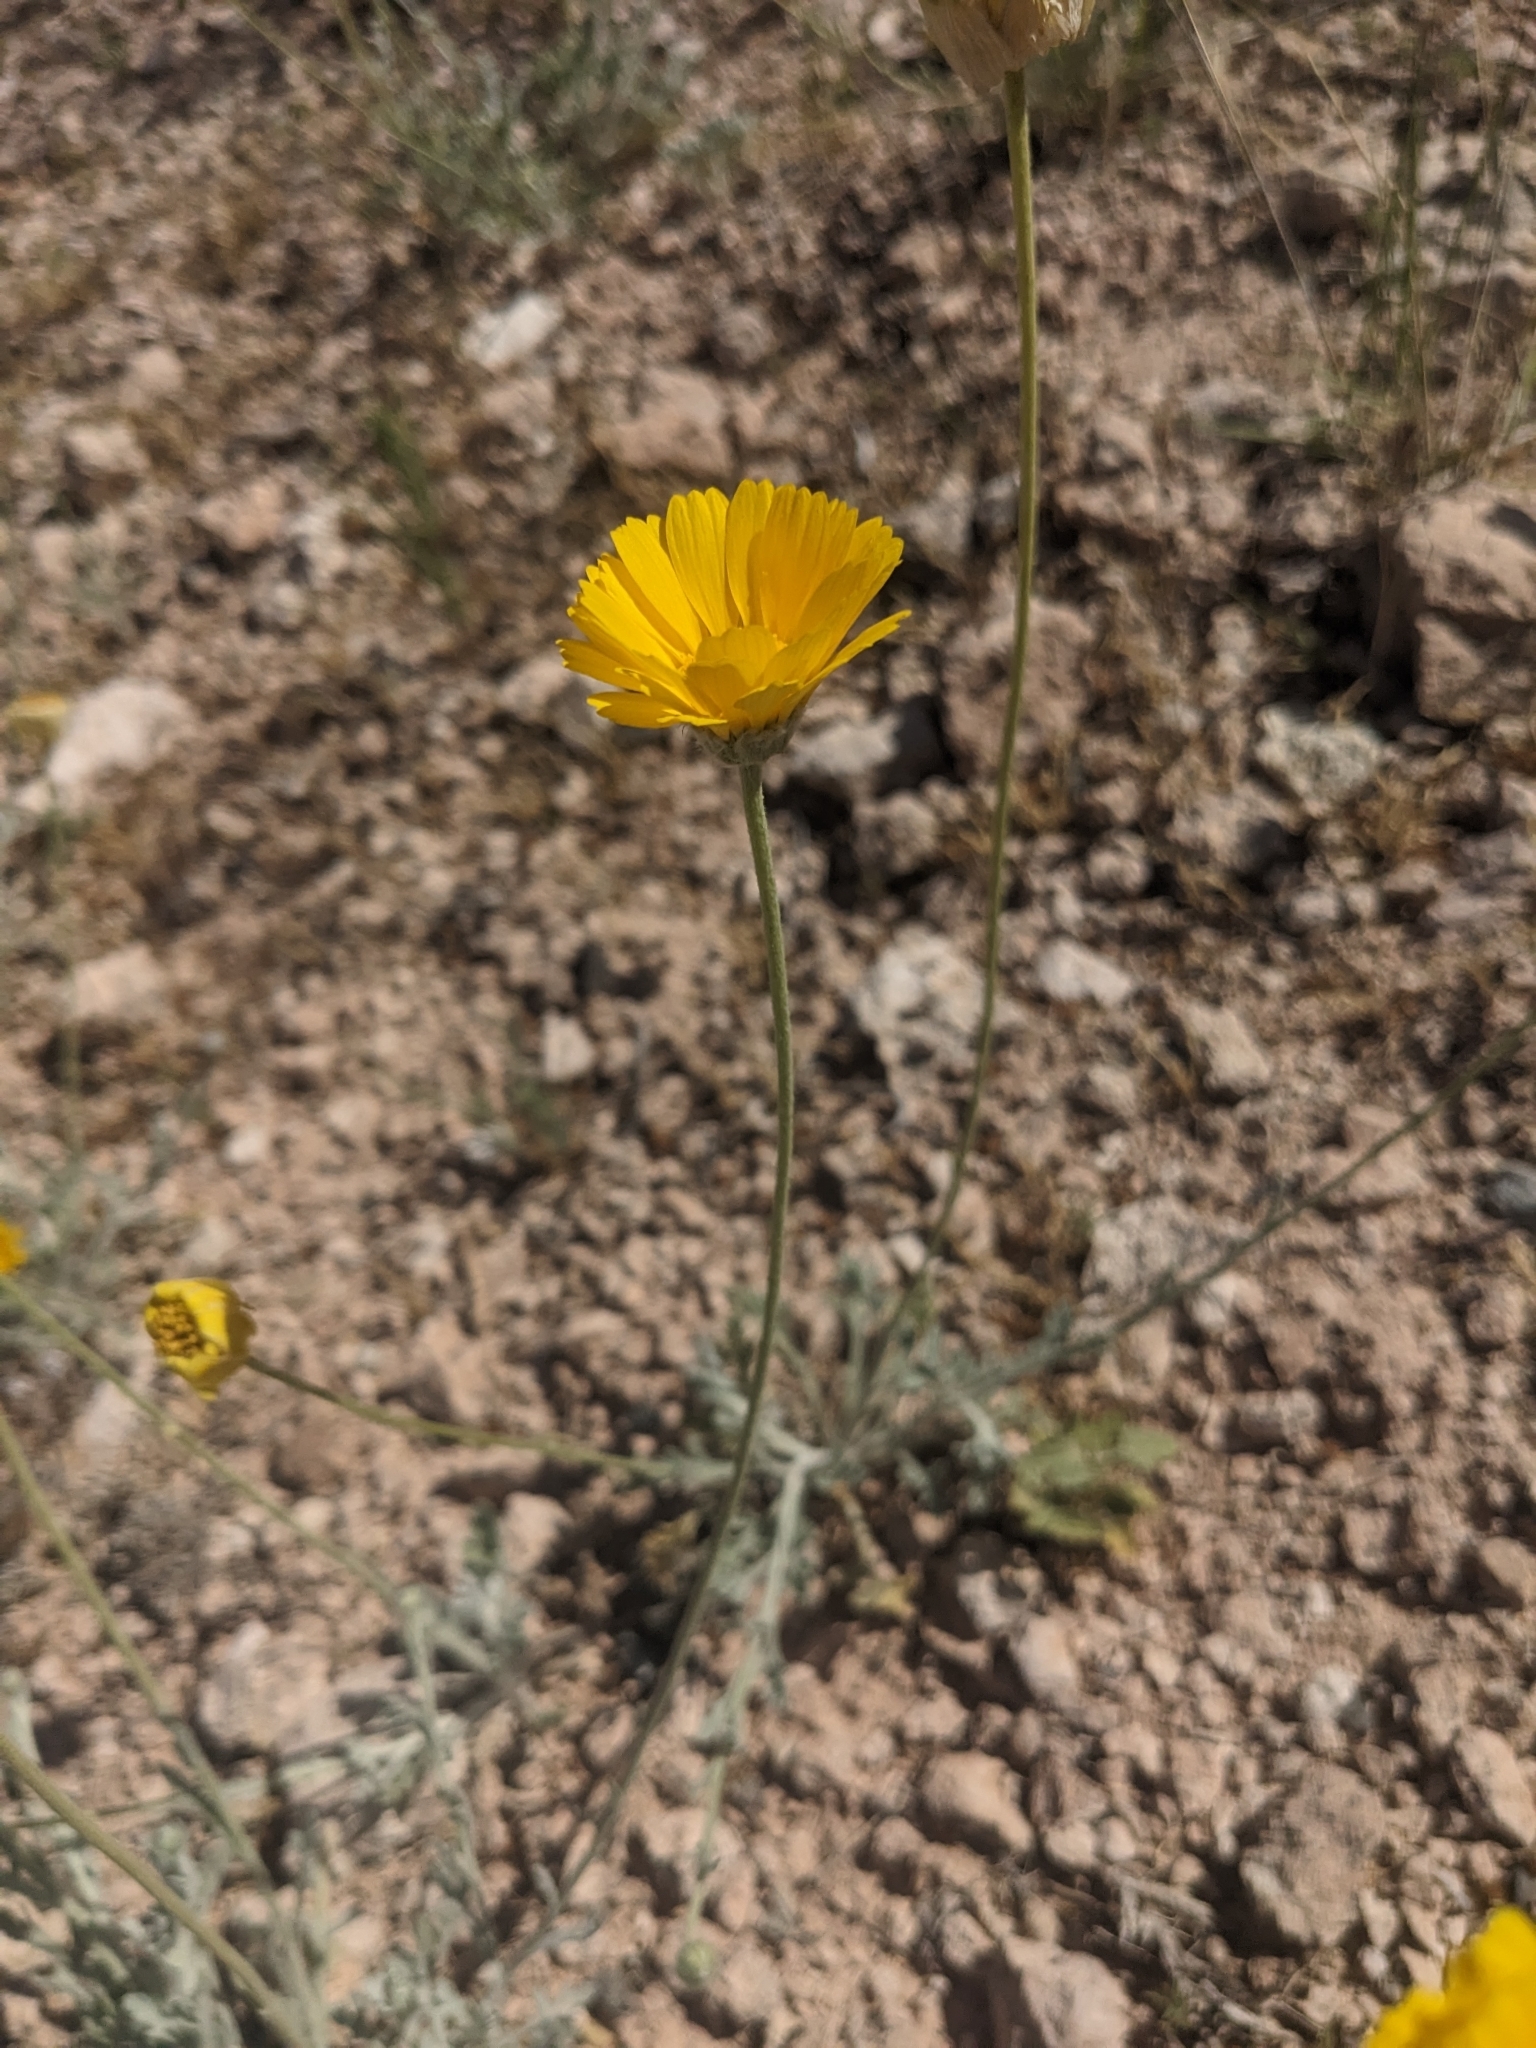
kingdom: Plantae
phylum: Tracheophyta
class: Magnoliopsida
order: Asterales
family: Asteraceae
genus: Baileya
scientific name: Baileya multiradiata
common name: Desert-marigold
